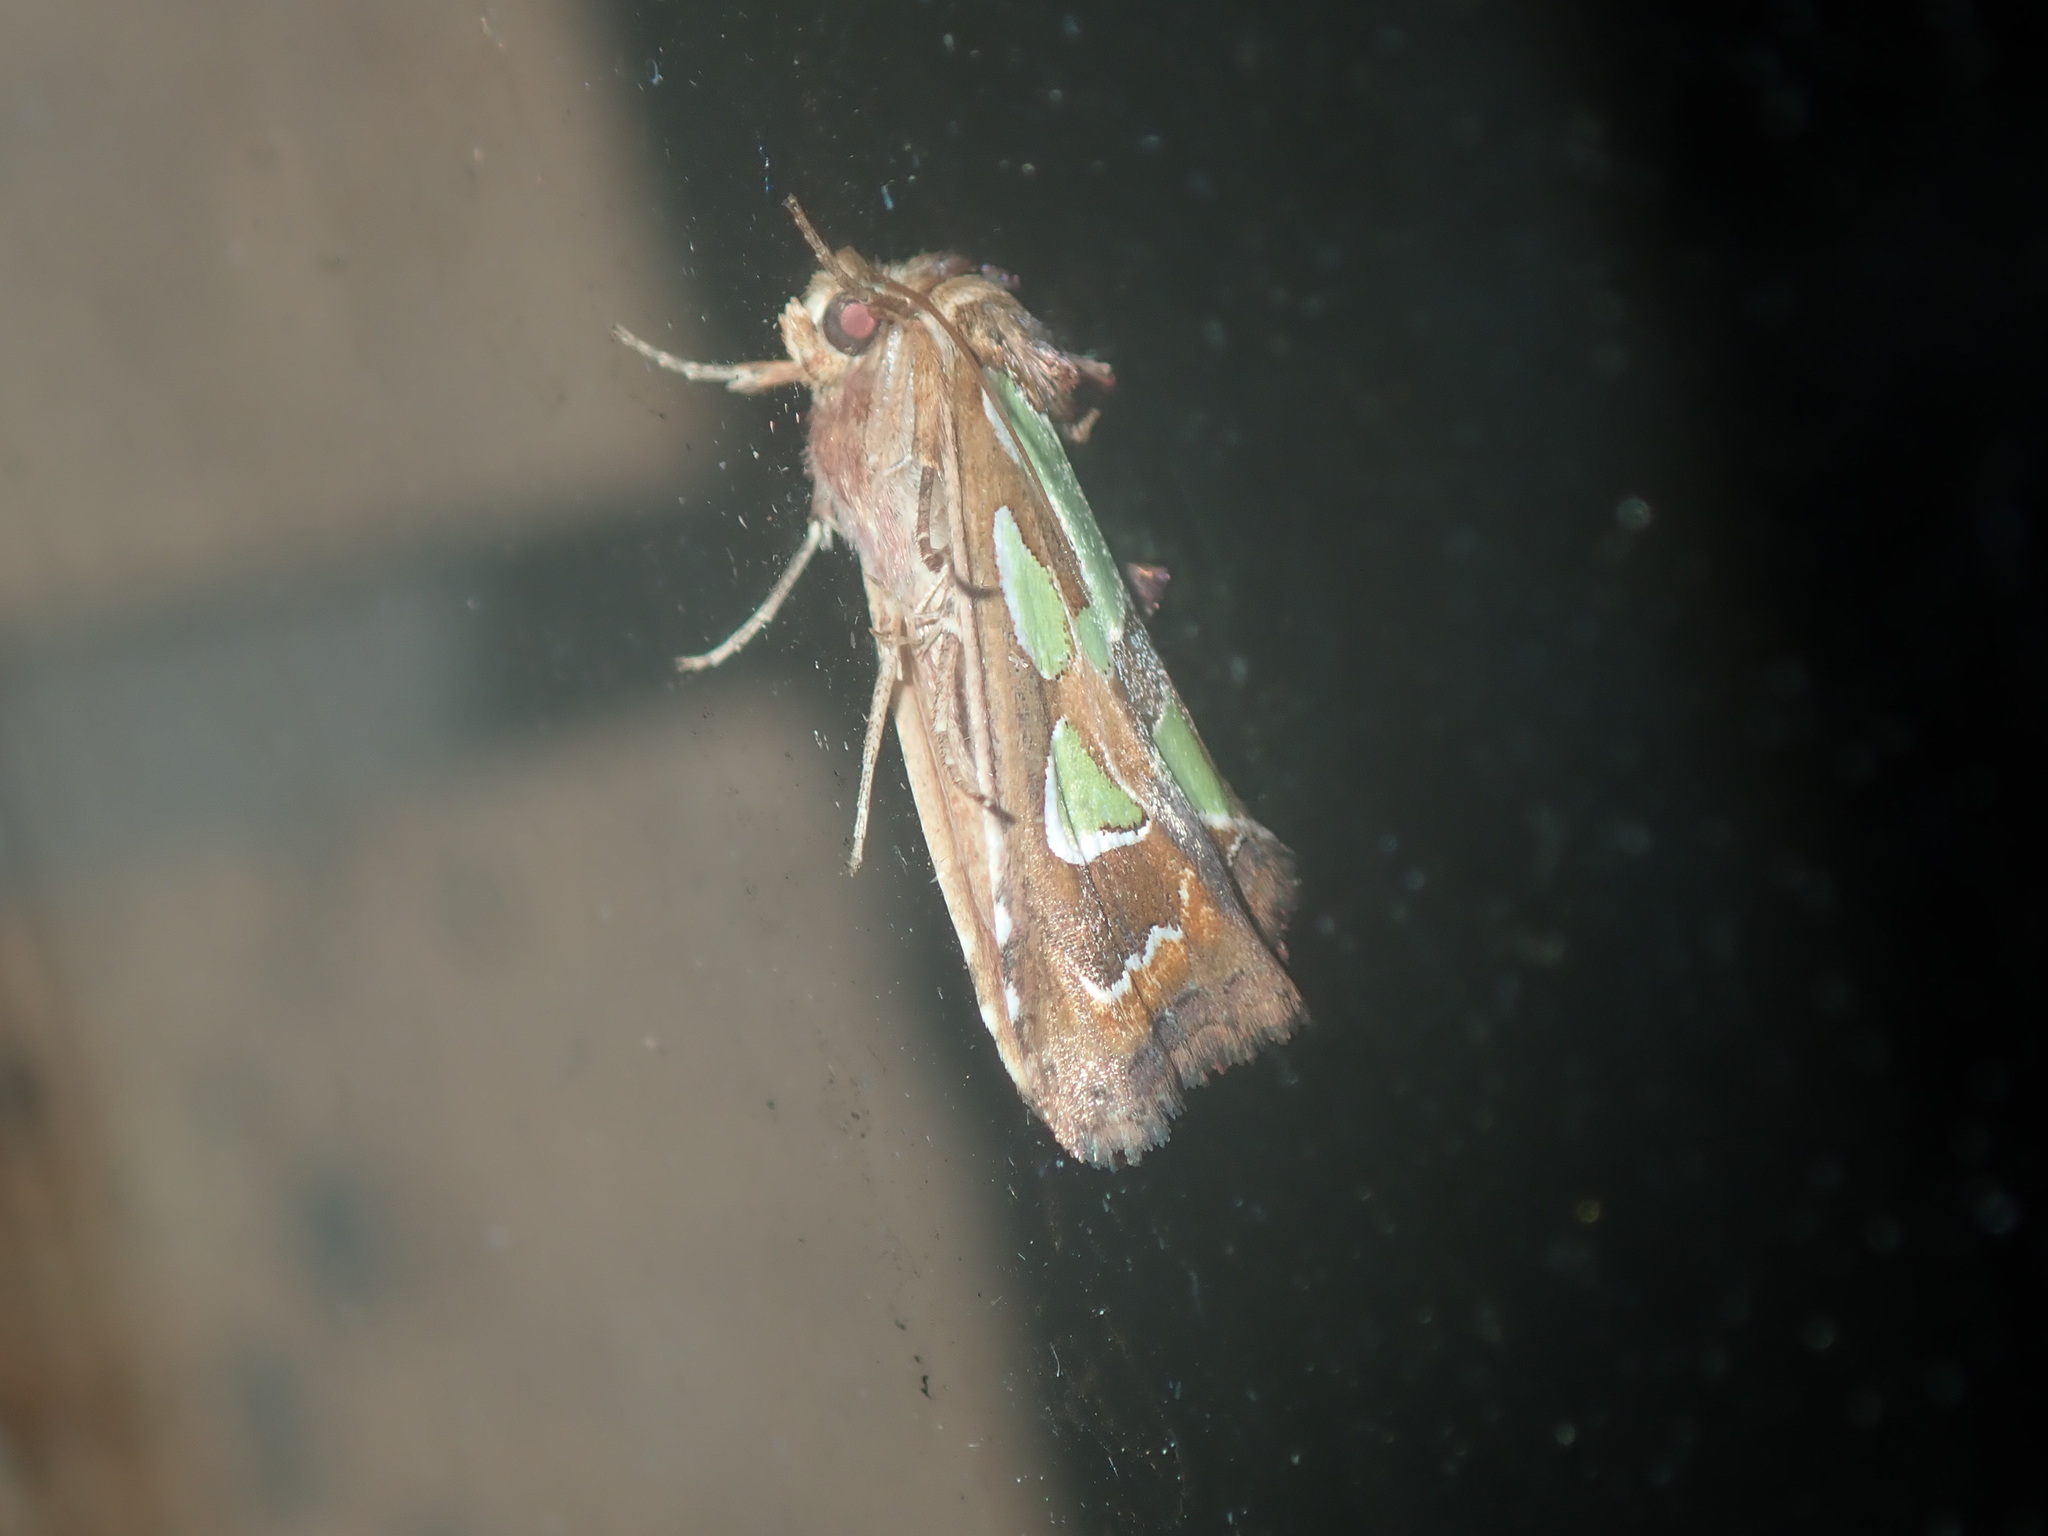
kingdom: Animalia
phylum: Arthropoda
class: Insecta
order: Lepidoptera
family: Noctuidae
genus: Cosmodes
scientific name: Cosmodes elegans
